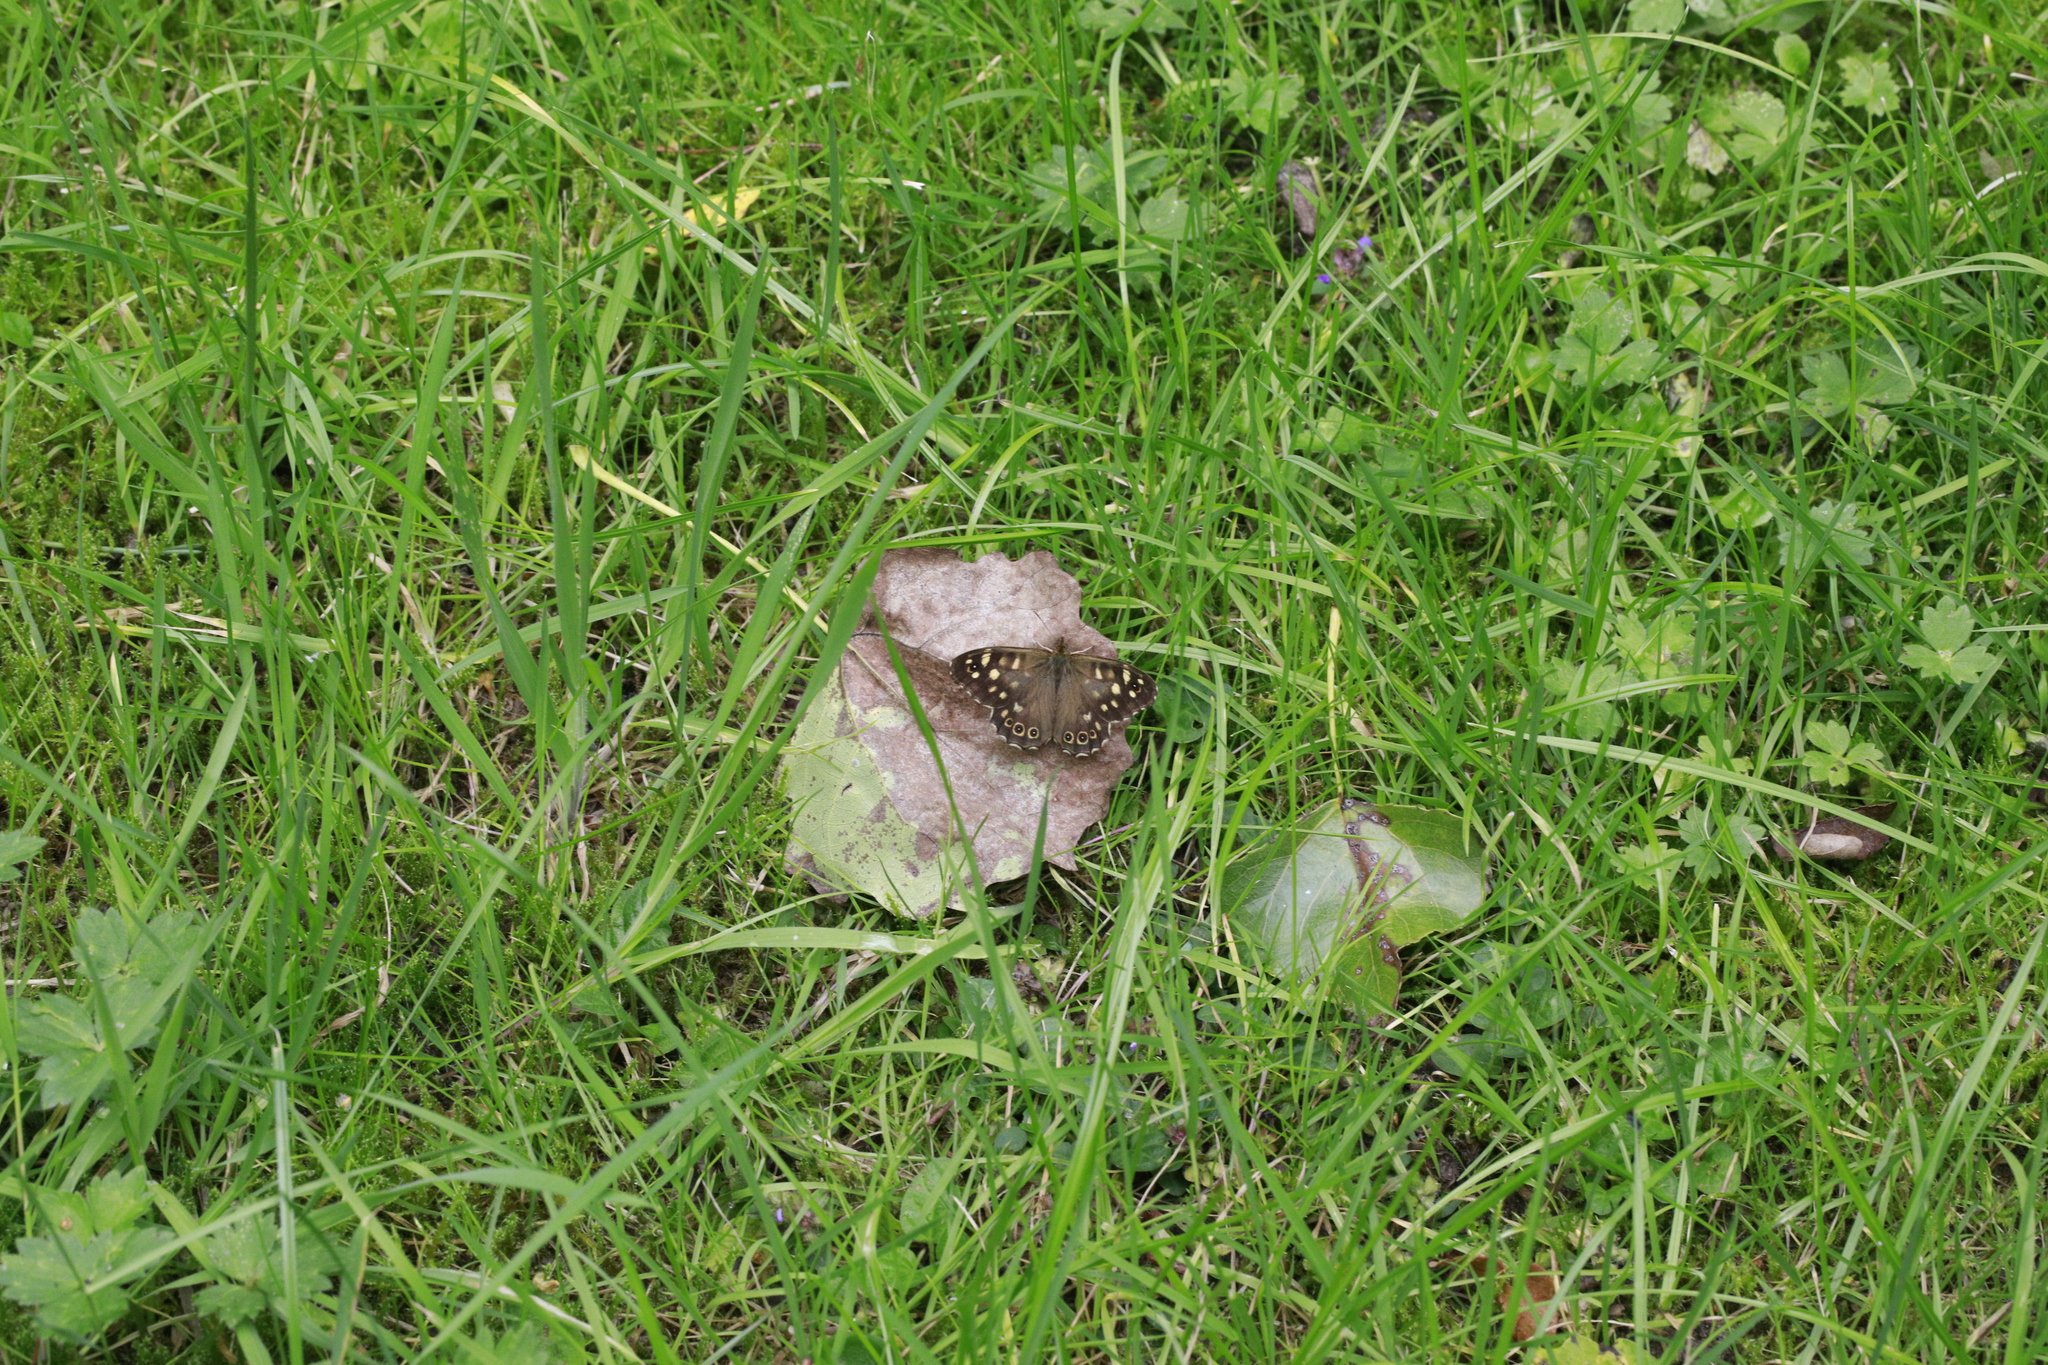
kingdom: Animalia
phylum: Arthropoda
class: Insecta
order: Lepidoptera
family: Nymphalidae
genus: Pararge
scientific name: Pararge aegeria
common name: Speckled wood
